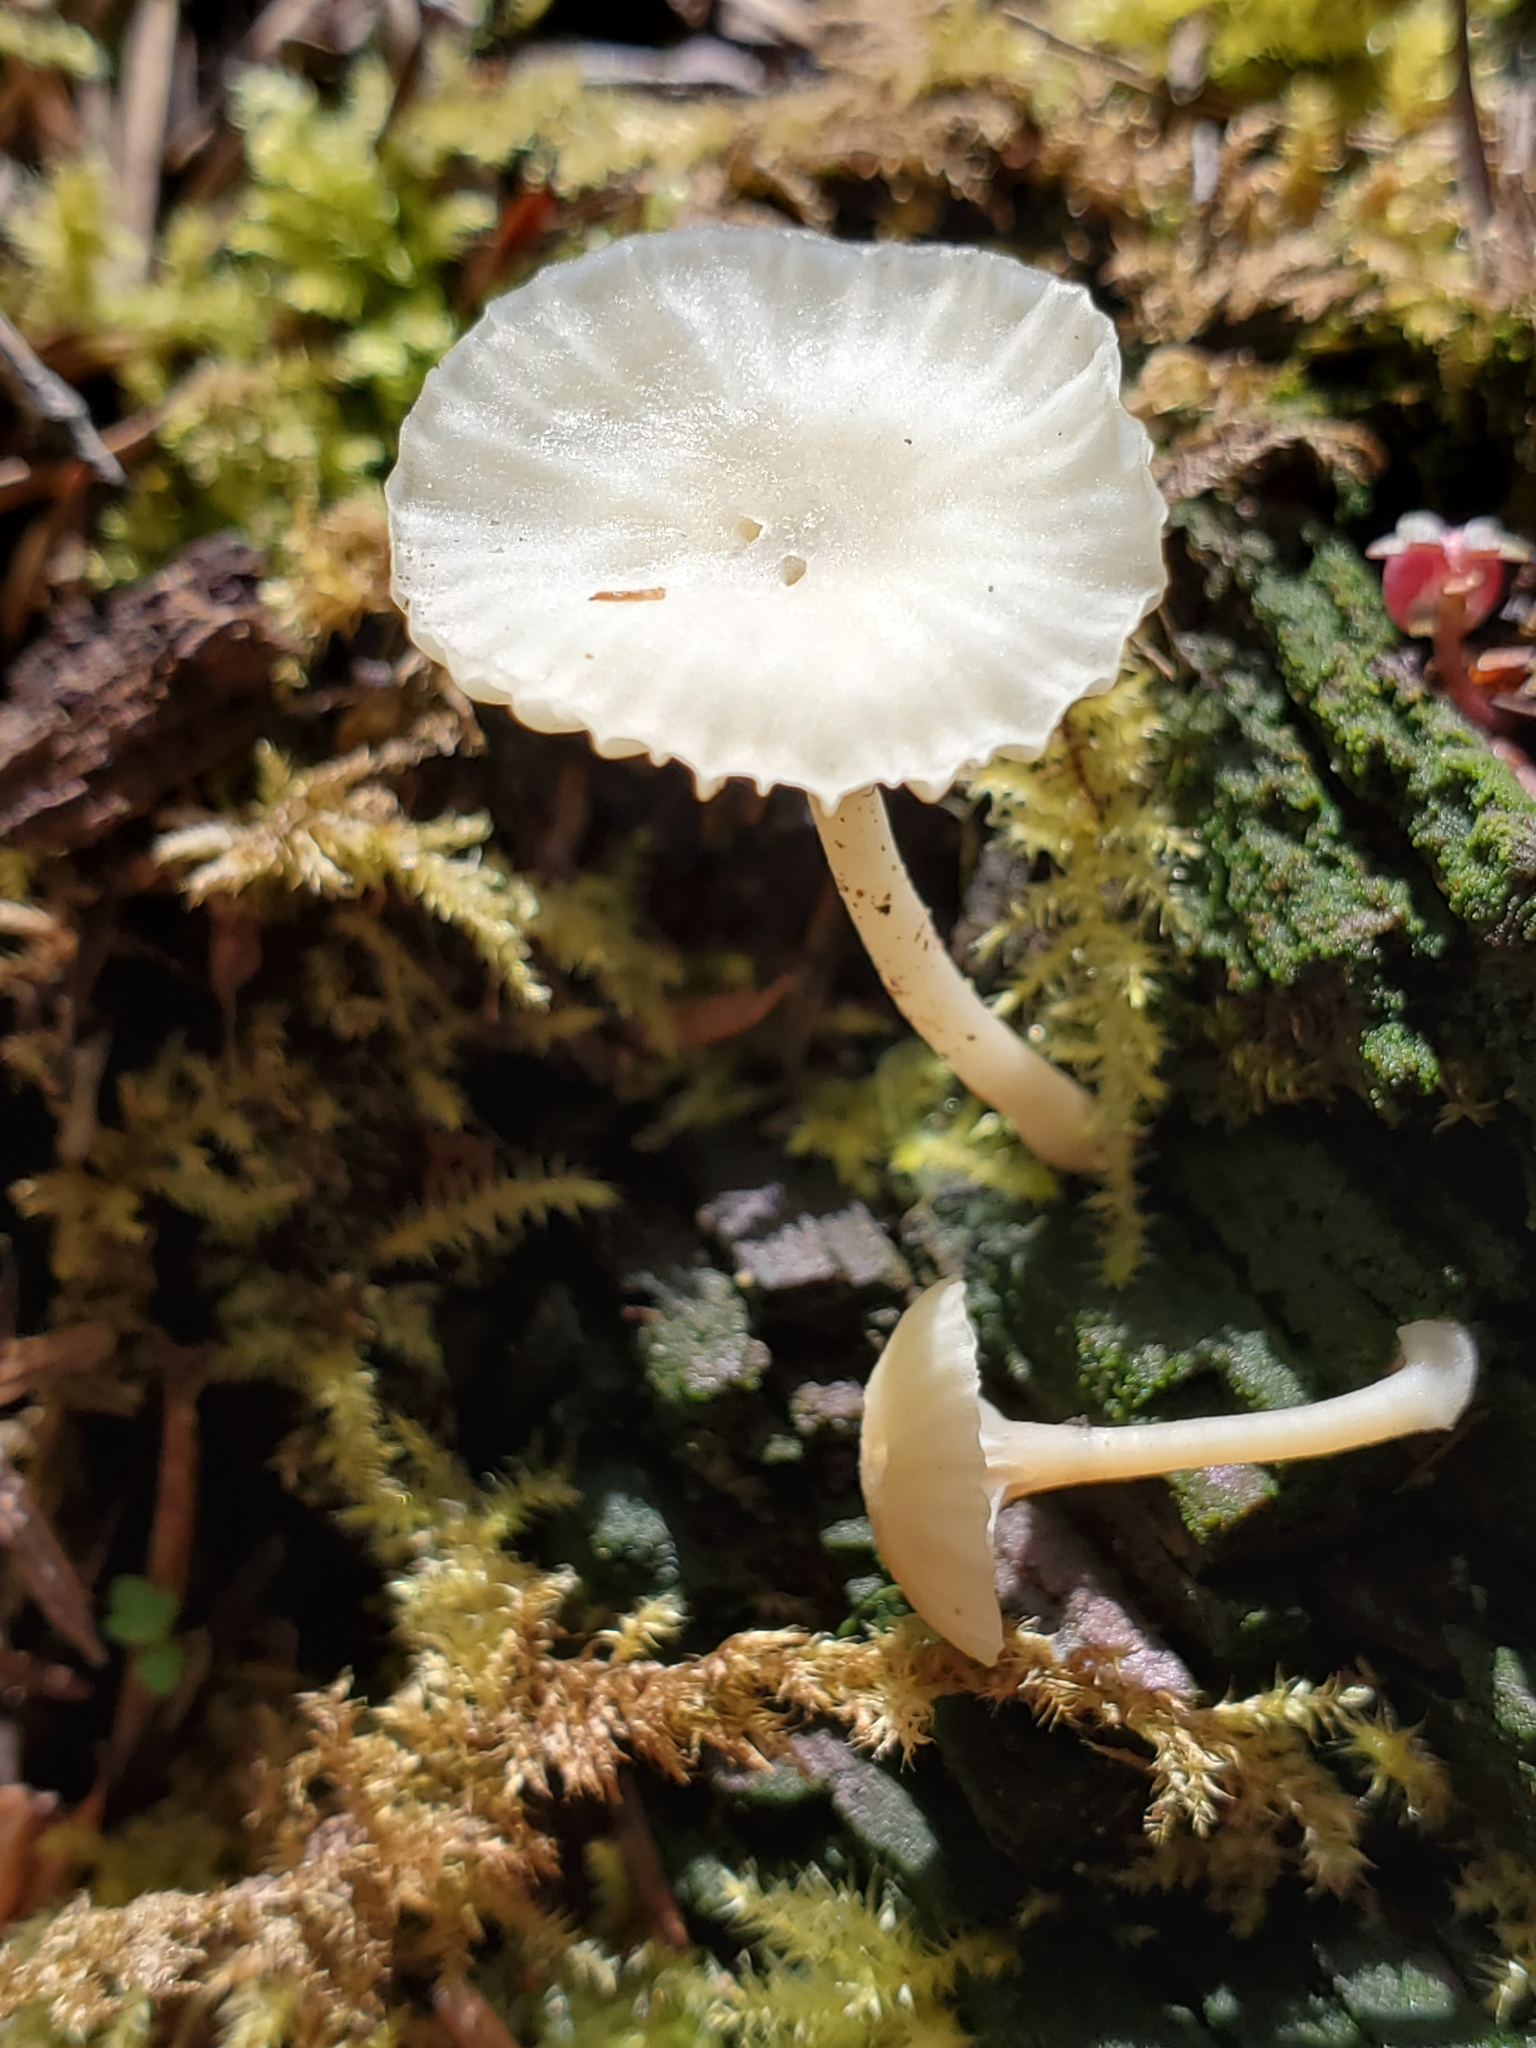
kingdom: Fungi
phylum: Basidiomycota
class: Agaricomycetes
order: Agaricales
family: Hygrophoraceae
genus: Lichenomphalia
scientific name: Lichenomphalia
